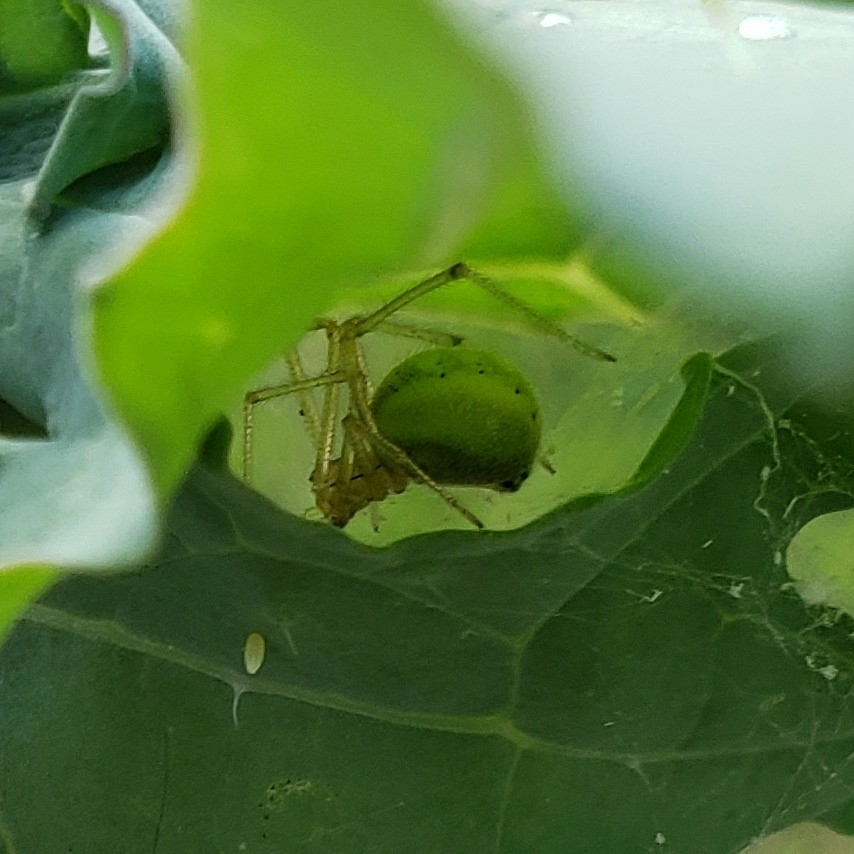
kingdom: Animalia
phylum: Arthropoda
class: Arachnida
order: Araneae
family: Theridiidae
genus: Enoplognatha
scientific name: Enoplognatha ovata
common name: Common candy-striped spider
